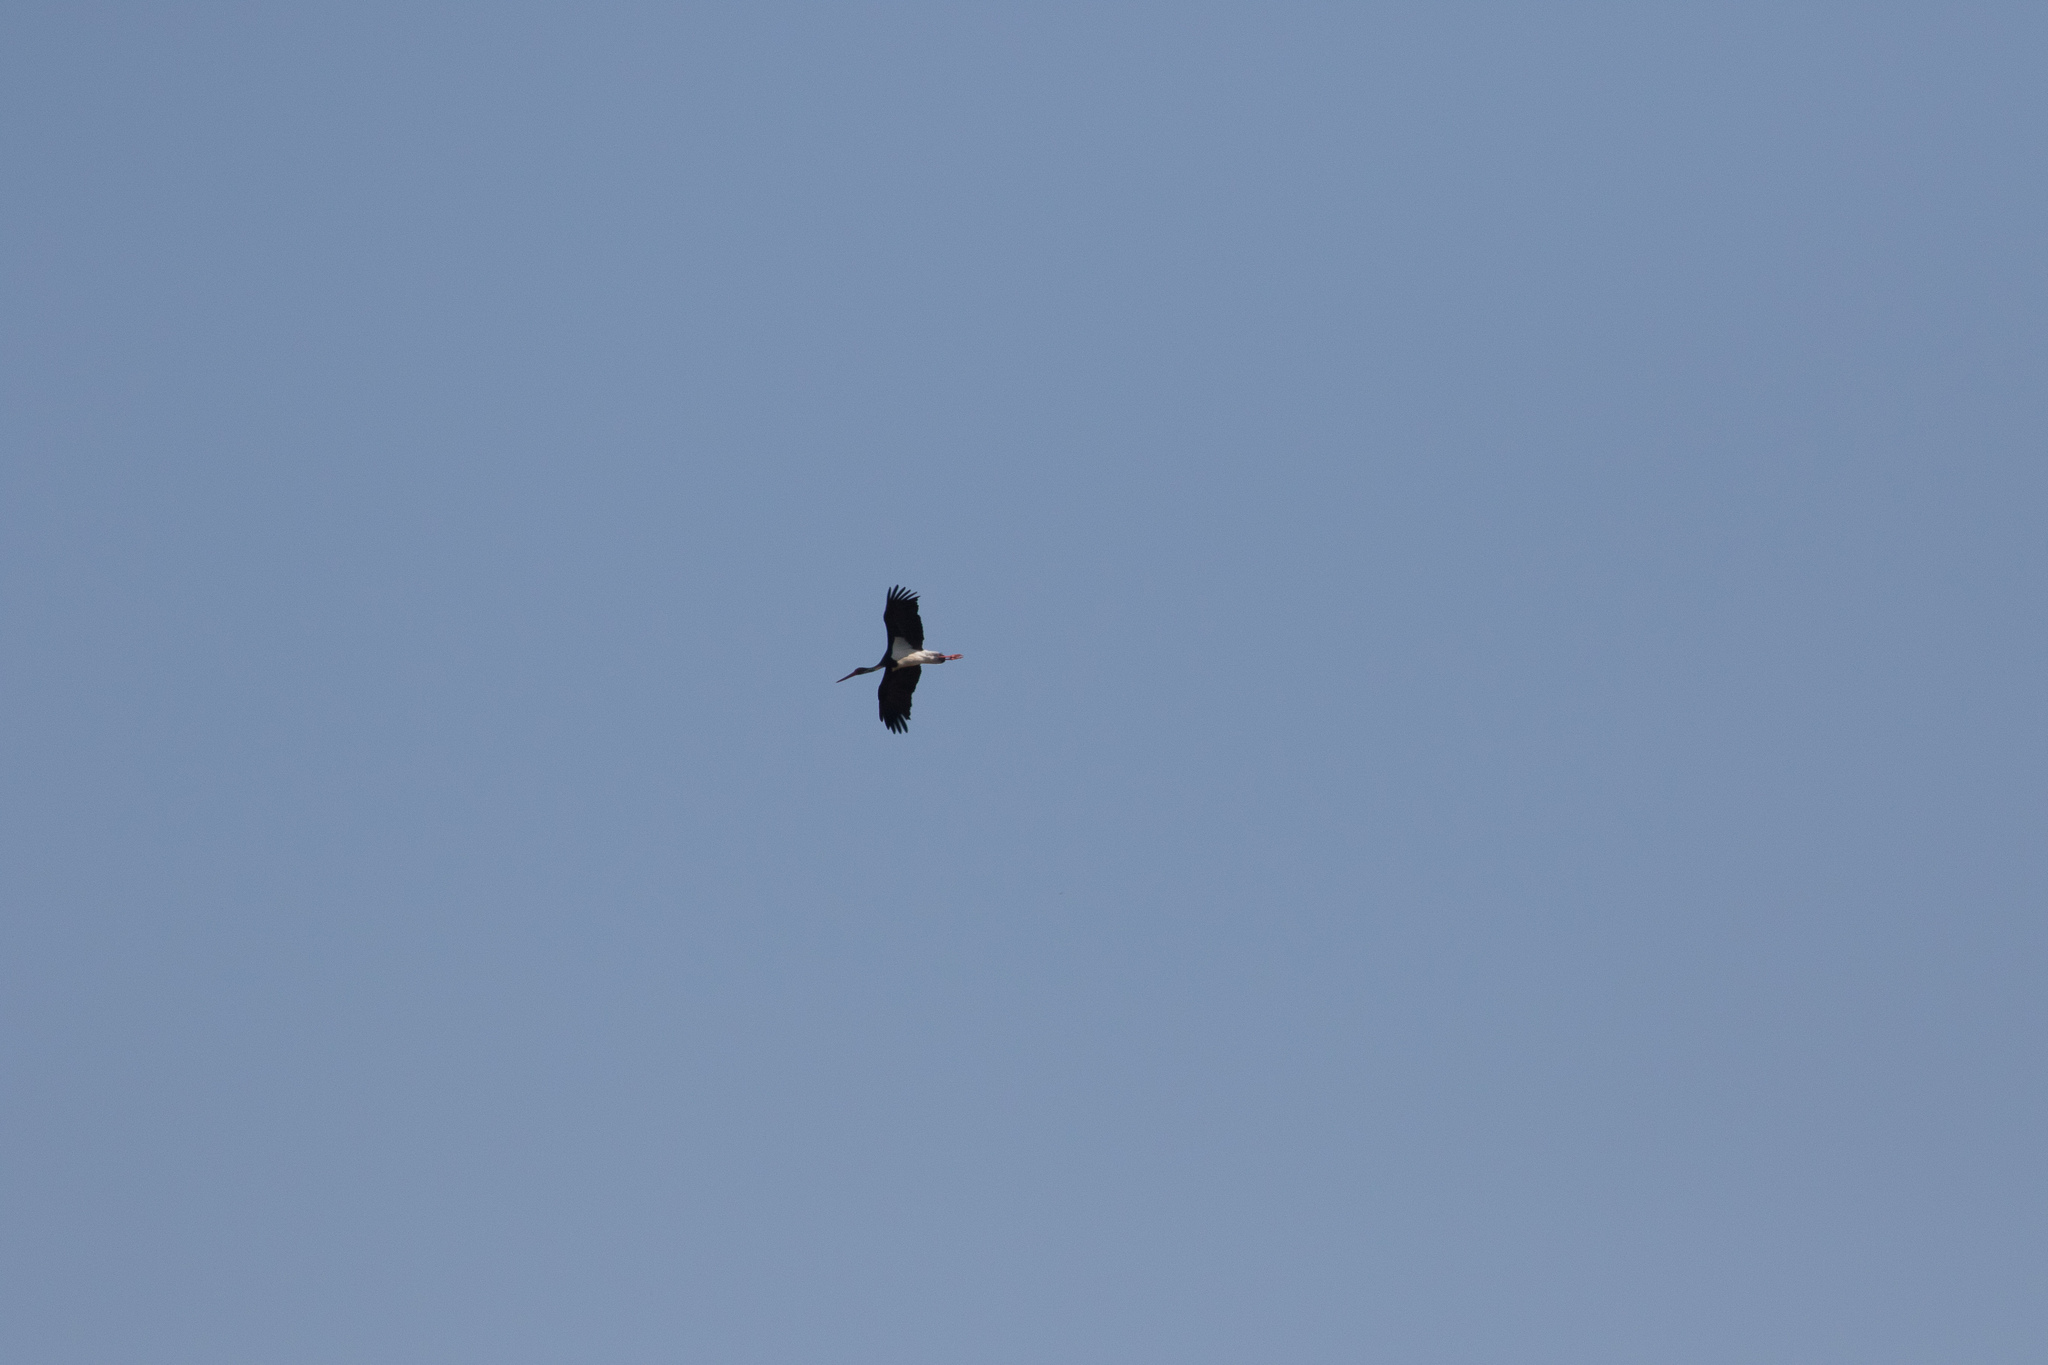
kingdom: Animalia
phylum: Chordata
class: Aves
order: Ciconiiformes
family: Ciconiidae
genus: Ciconia
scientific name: Ciconia nigra
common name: Black stork
